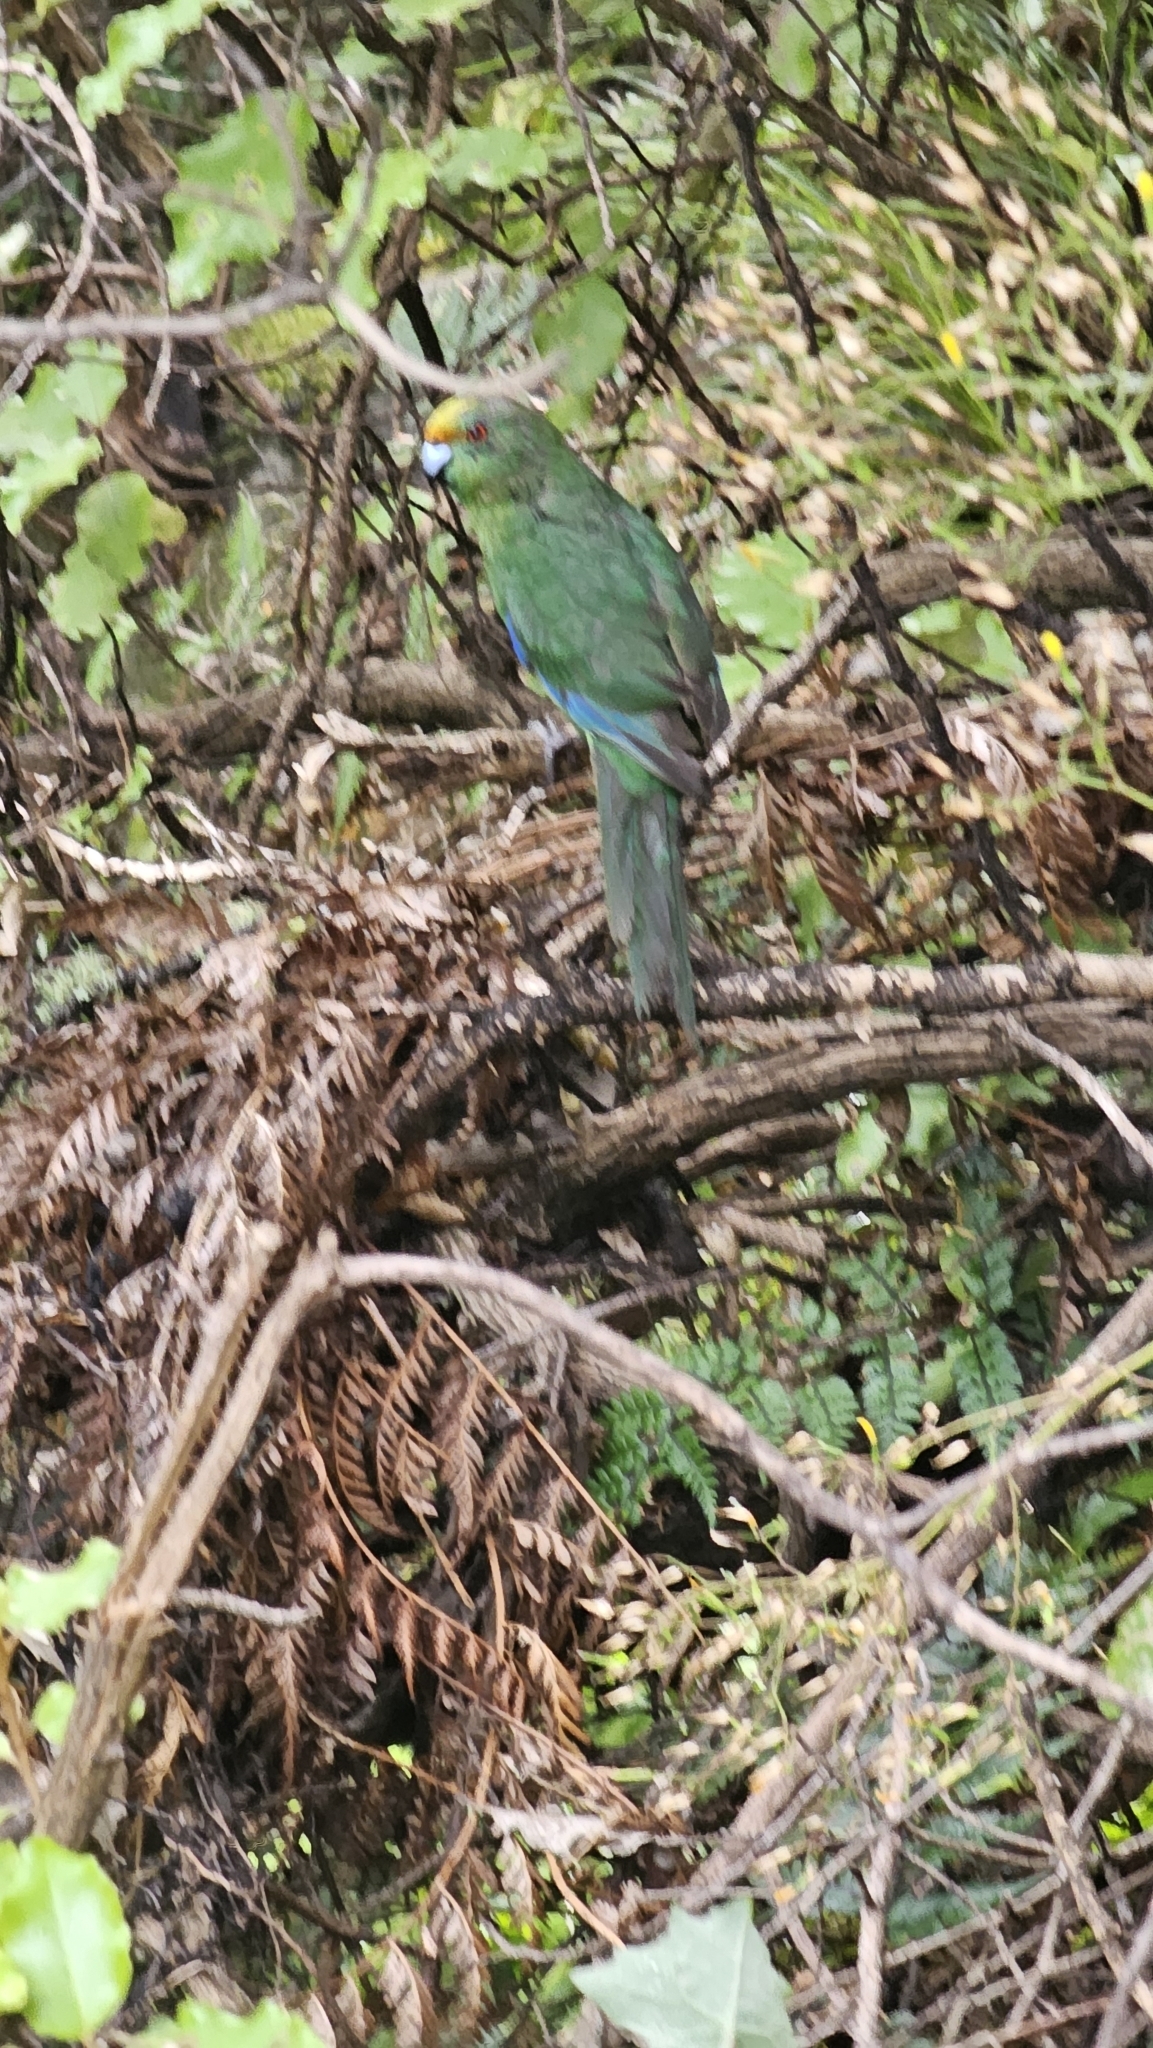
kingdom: Animalia
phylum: Chordata
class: Aves
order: Psittaciformes
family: Psittacidae
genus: Cyanoramphus
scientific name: Cyanoramphus malherbi
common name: Malherbe's parakeet
